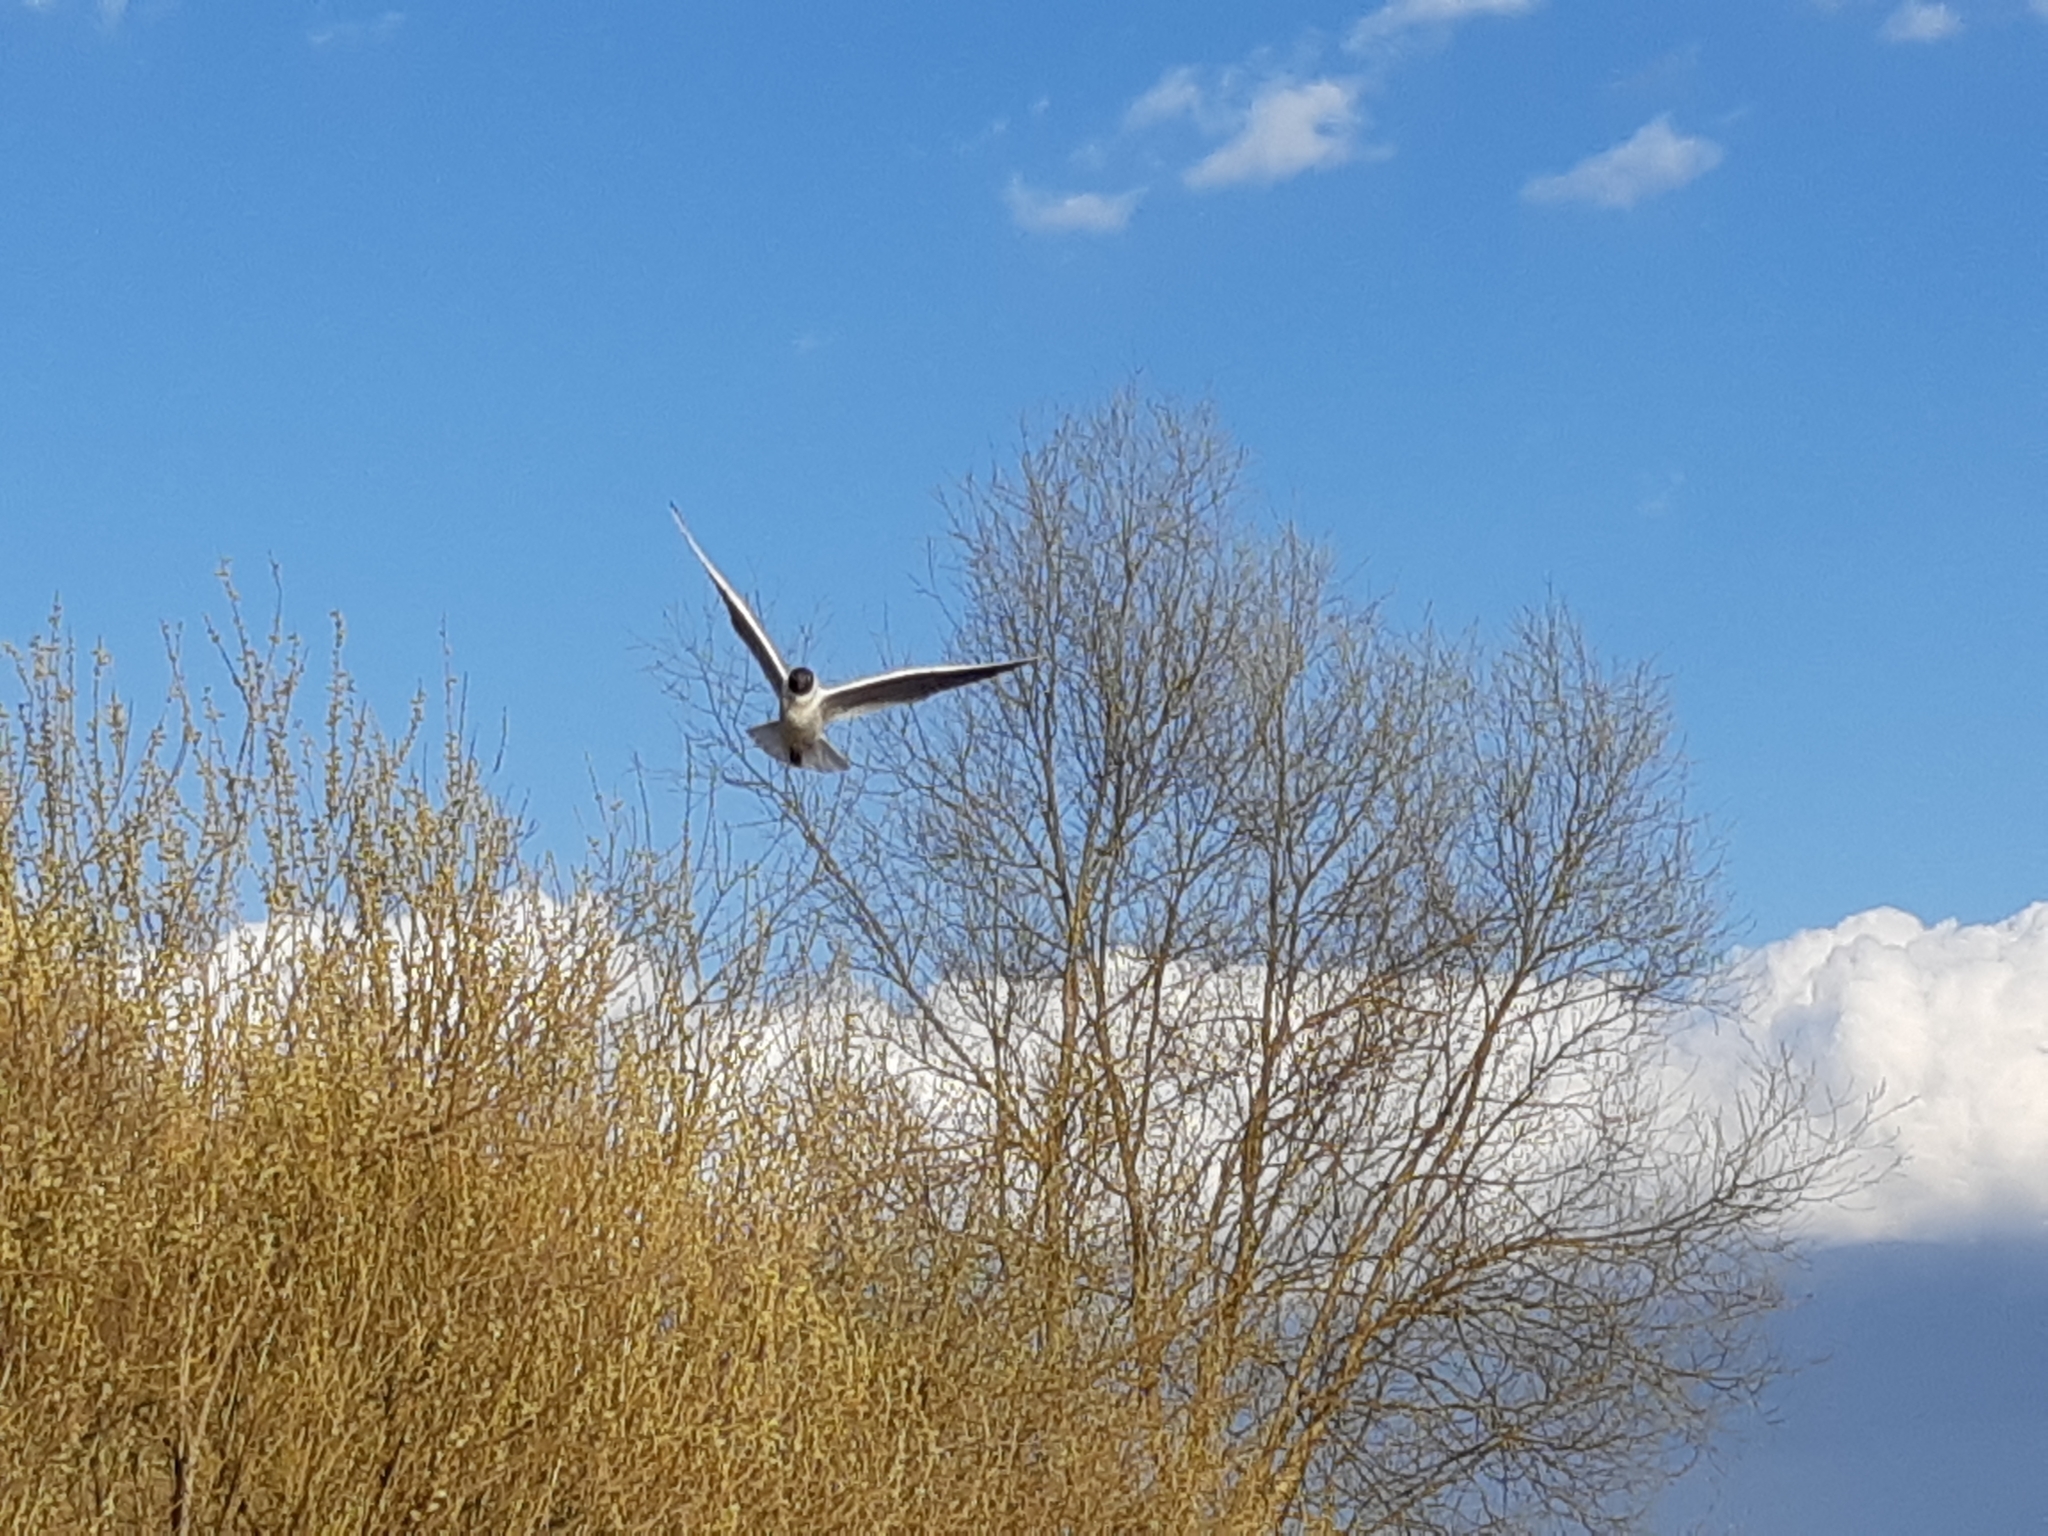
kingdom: Animalia
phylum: Chordata
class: Aves
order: Charadriiformes
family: Laridae
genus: Chroicocephalus
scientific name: Chroicocephalus ridibundus
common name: Black-headed gull
